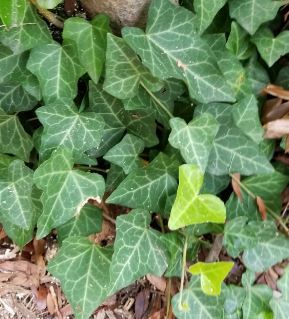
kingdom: Plantae
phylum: Tracheophyta
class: Magnoliopsida
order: Apiales
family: Araliaceae
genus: Hedera
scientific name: Hedera helix
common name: Ivy
